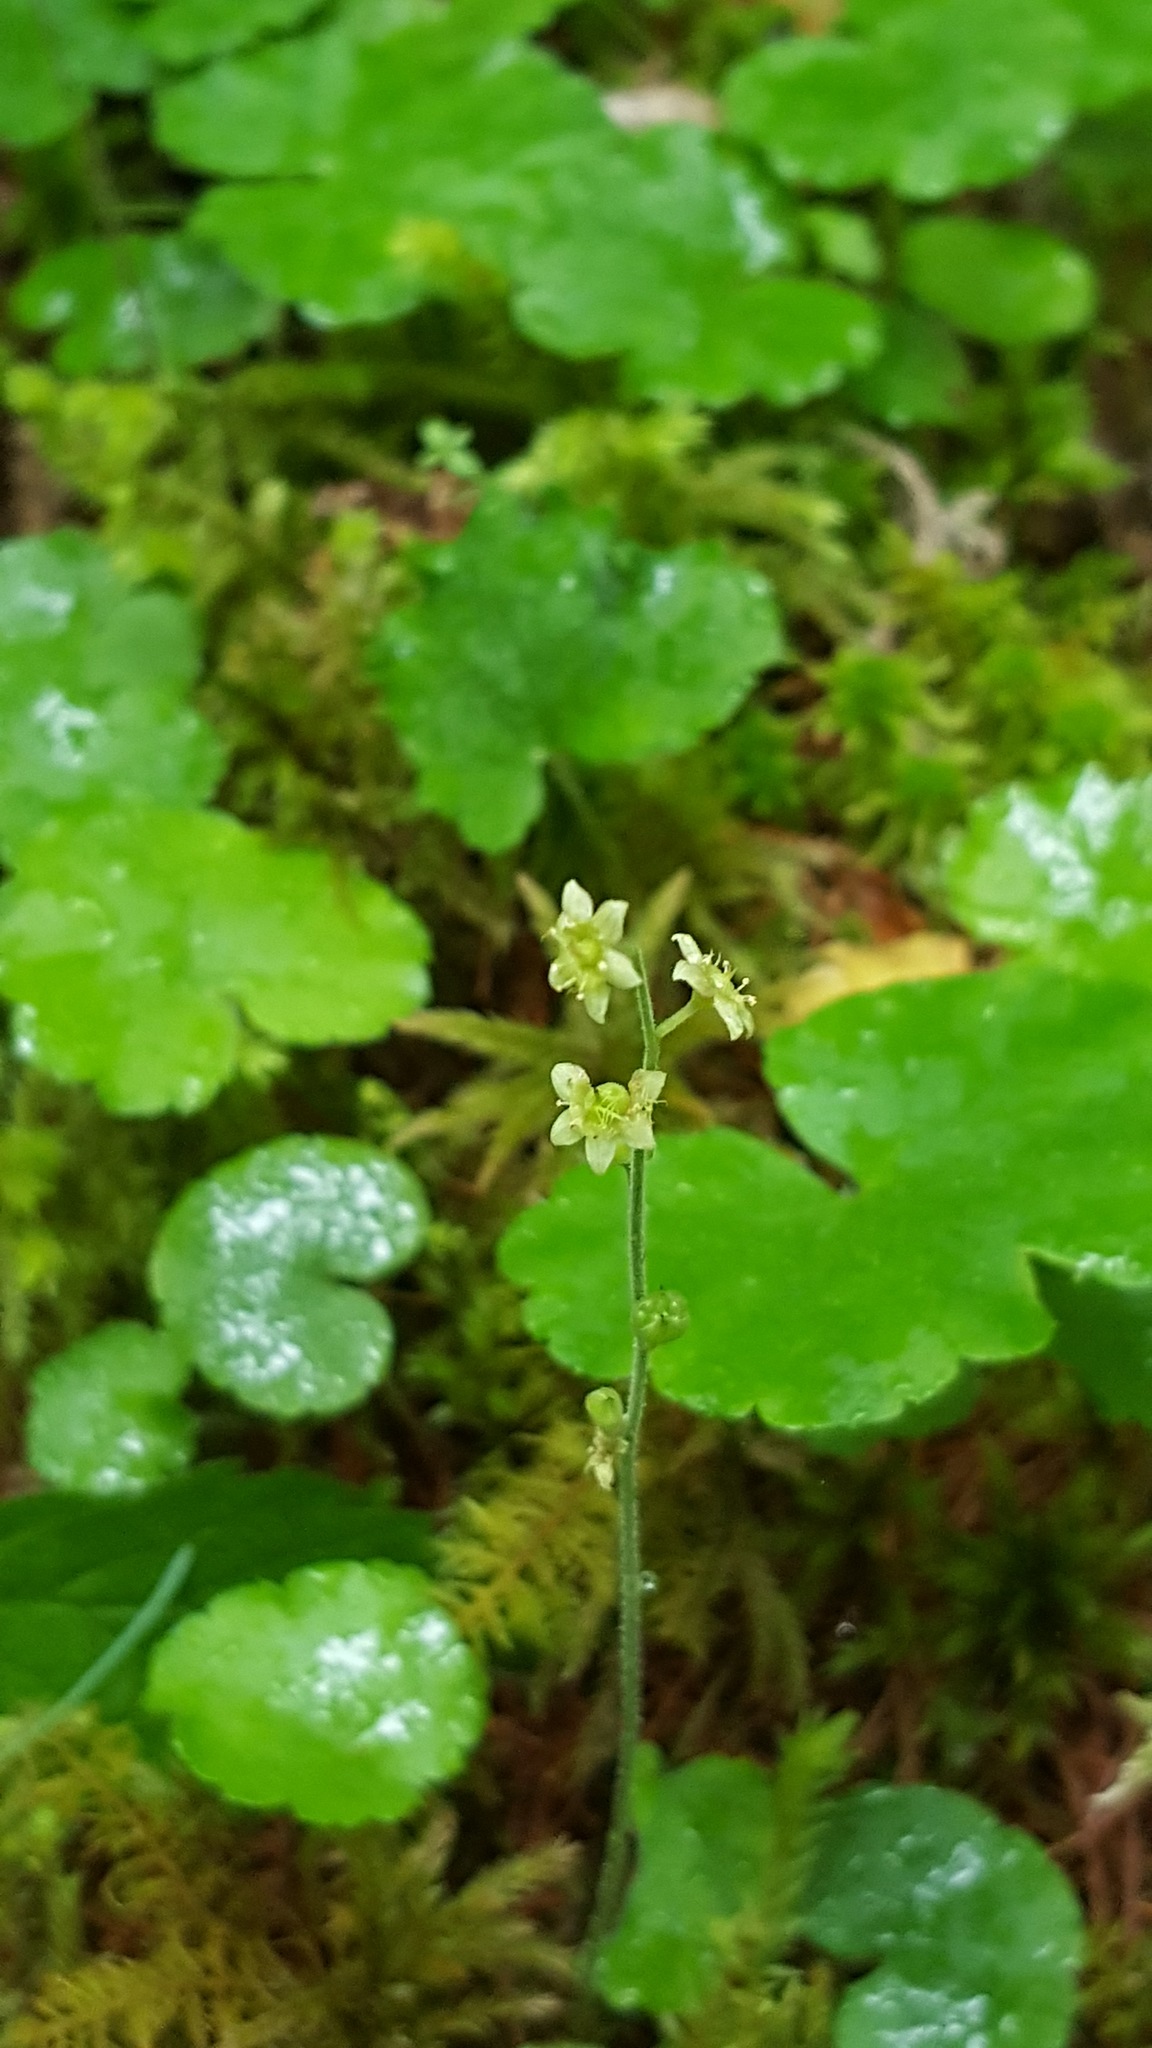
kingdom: Plantae
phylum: Tracheophyta
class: Magnoliopsida
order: Saxifragales
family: Saxifragaceae
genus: Mitella
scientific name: Mitella nuda
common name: Bare-stemmed bishop's-cap
